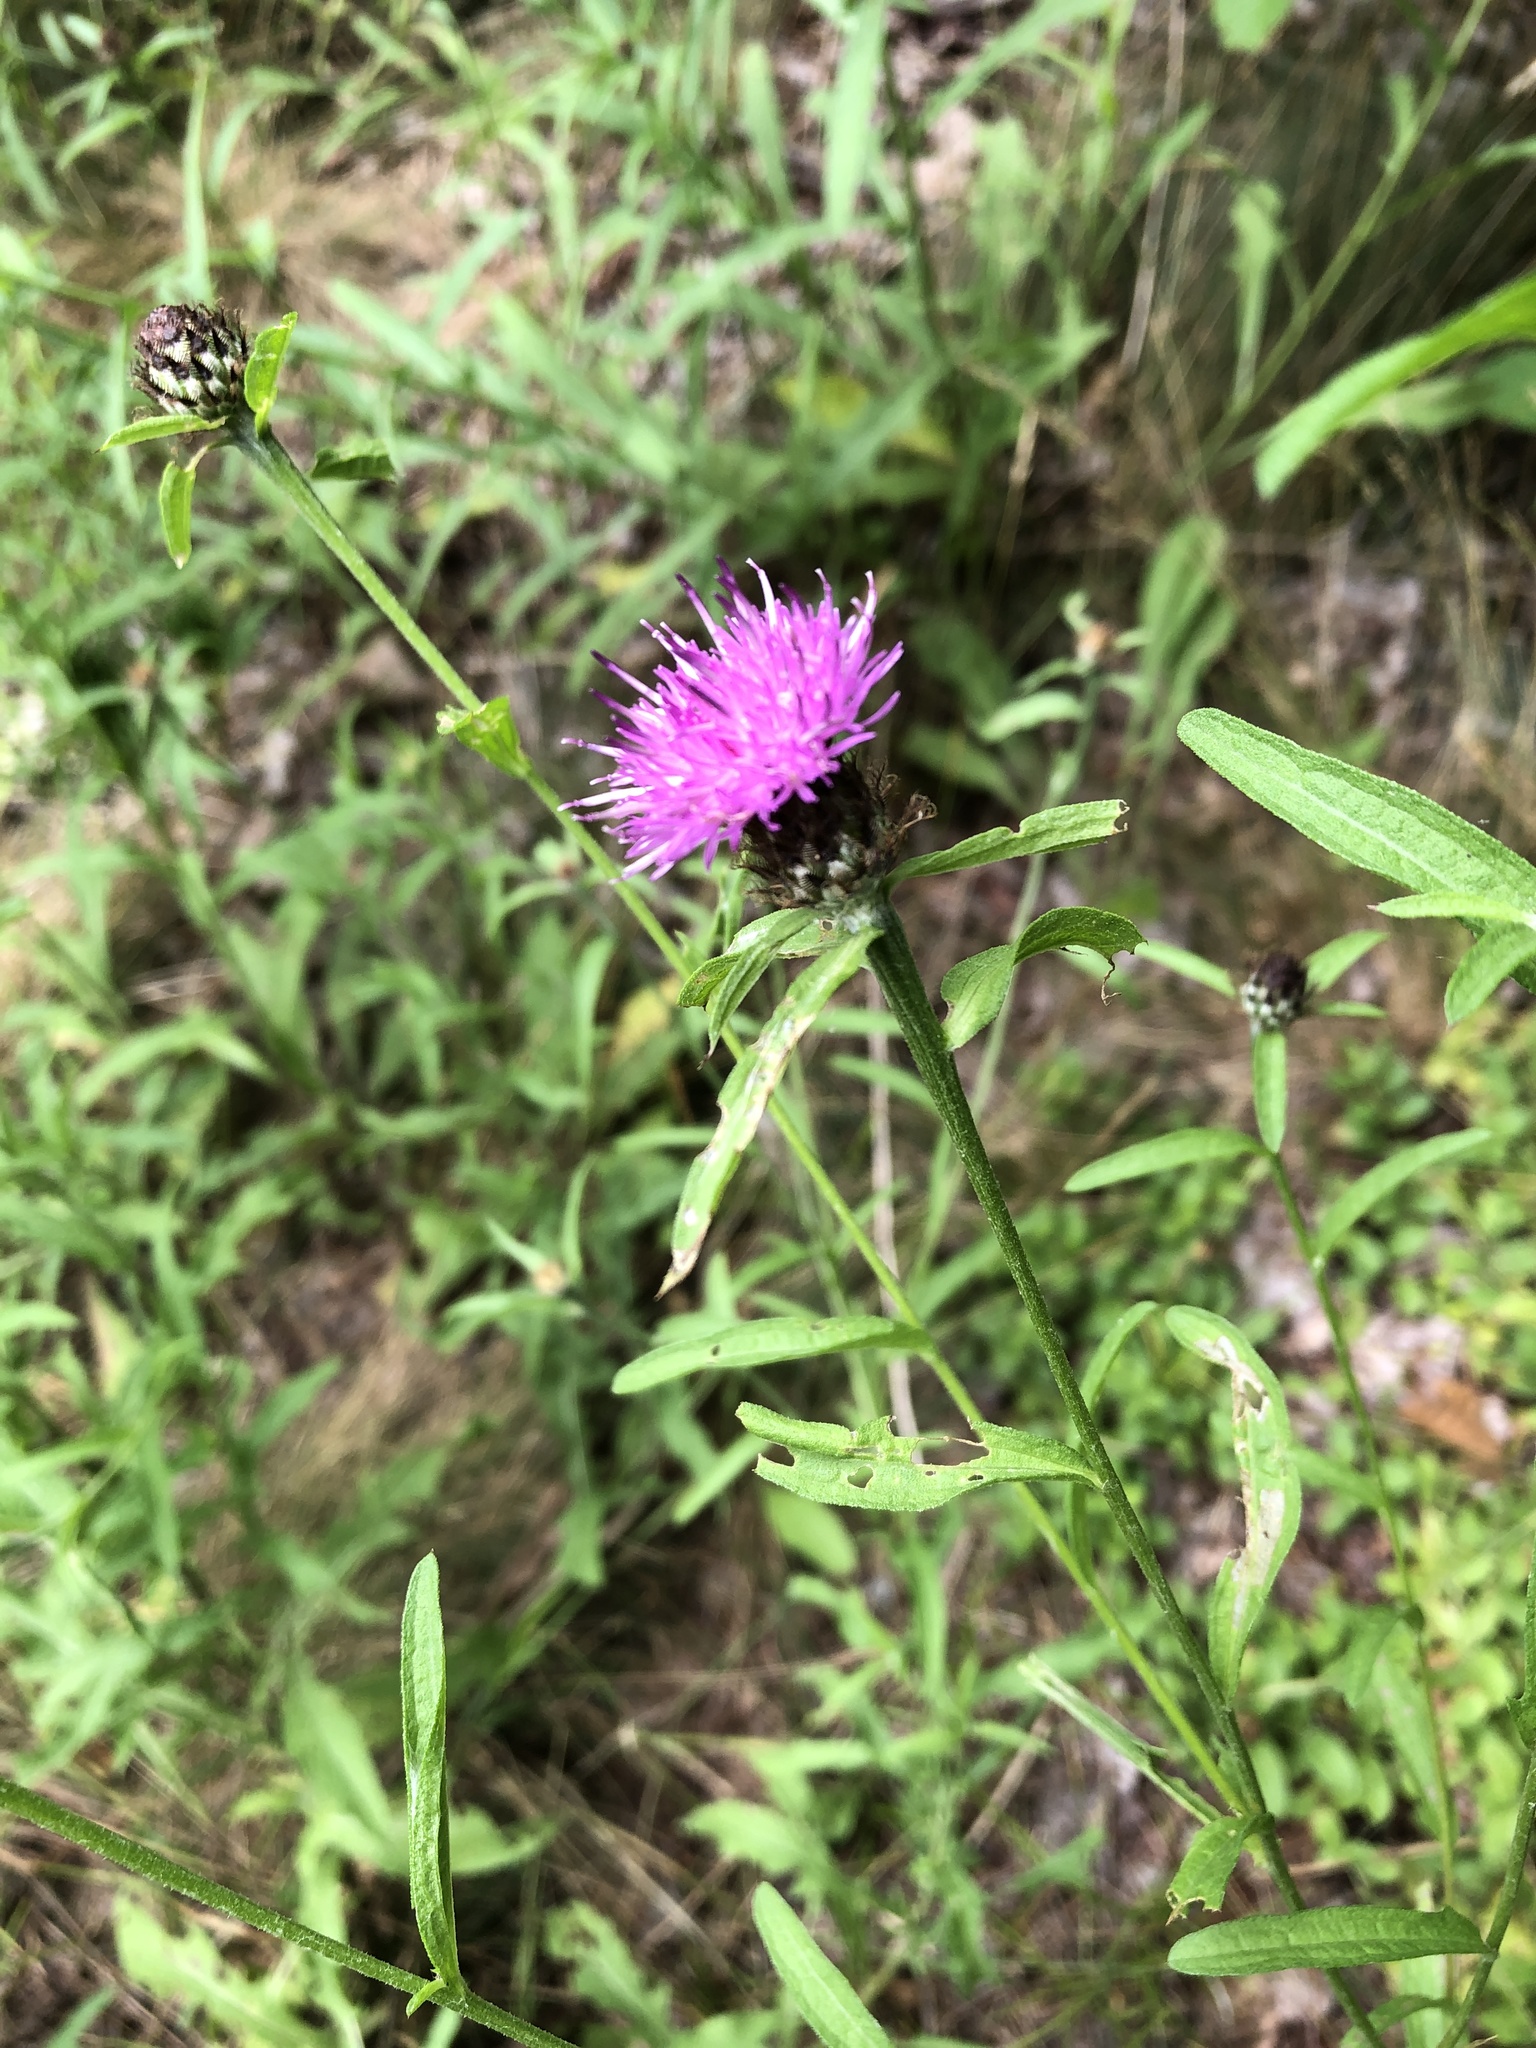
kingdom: Plantae
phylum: Tracheophyta
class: Magnoliopsida
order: Asterales
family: Asteraceae
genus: Centaurea
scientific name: Centaurea nigra
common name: Lesser knapweed
